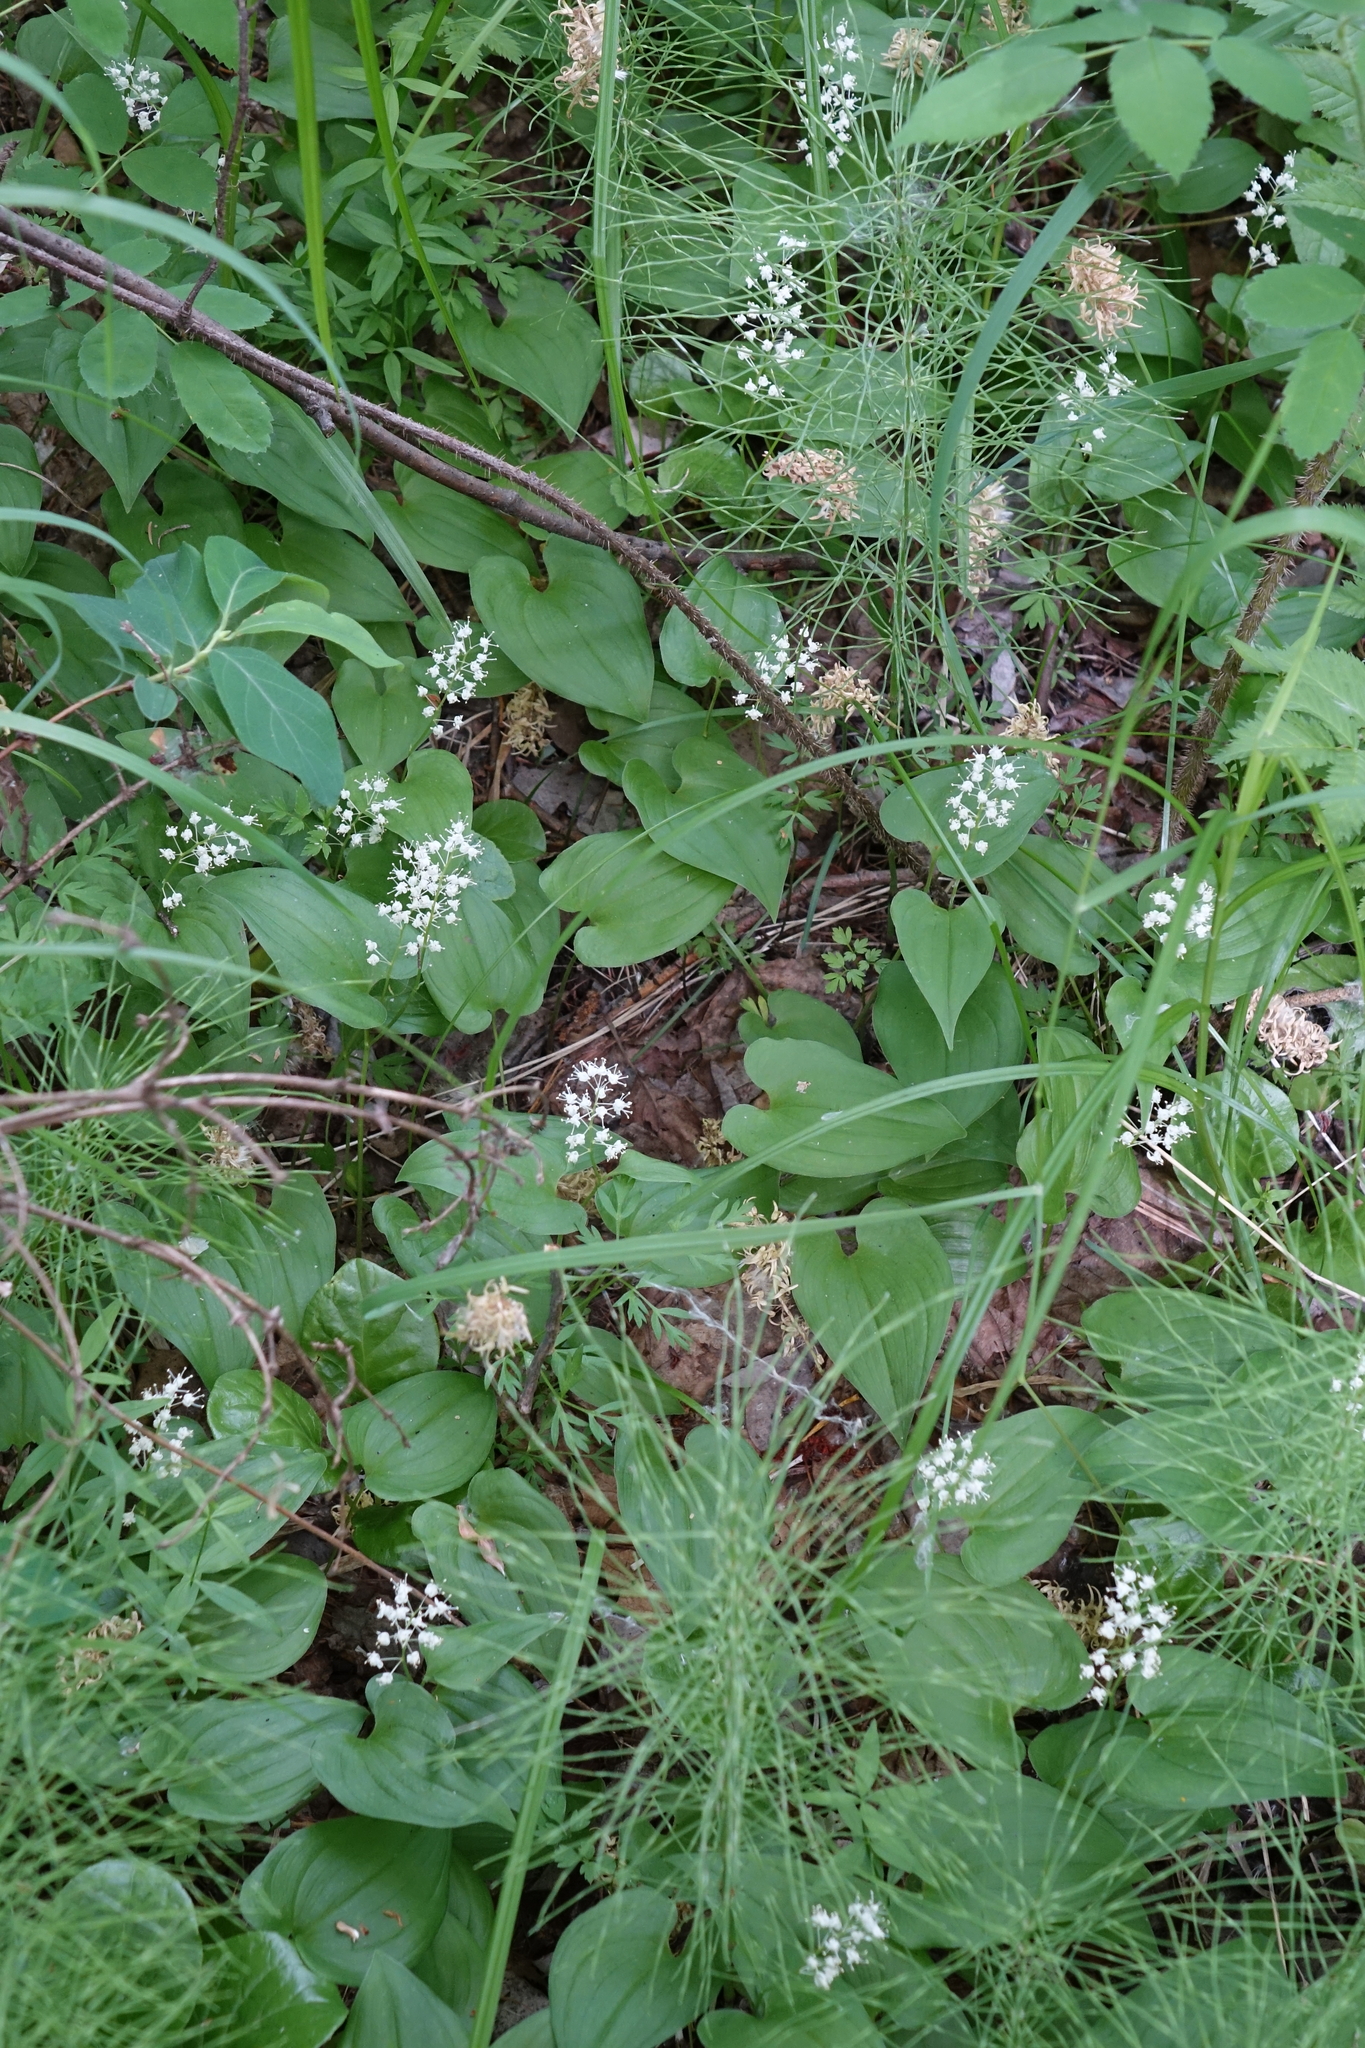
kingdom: Plantae
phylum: Tracheophyta
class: Liliopsida
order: Asparagales
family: Asparagaceae
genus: Maianthemum
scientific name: Maianthemum bifolium
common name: May lily
